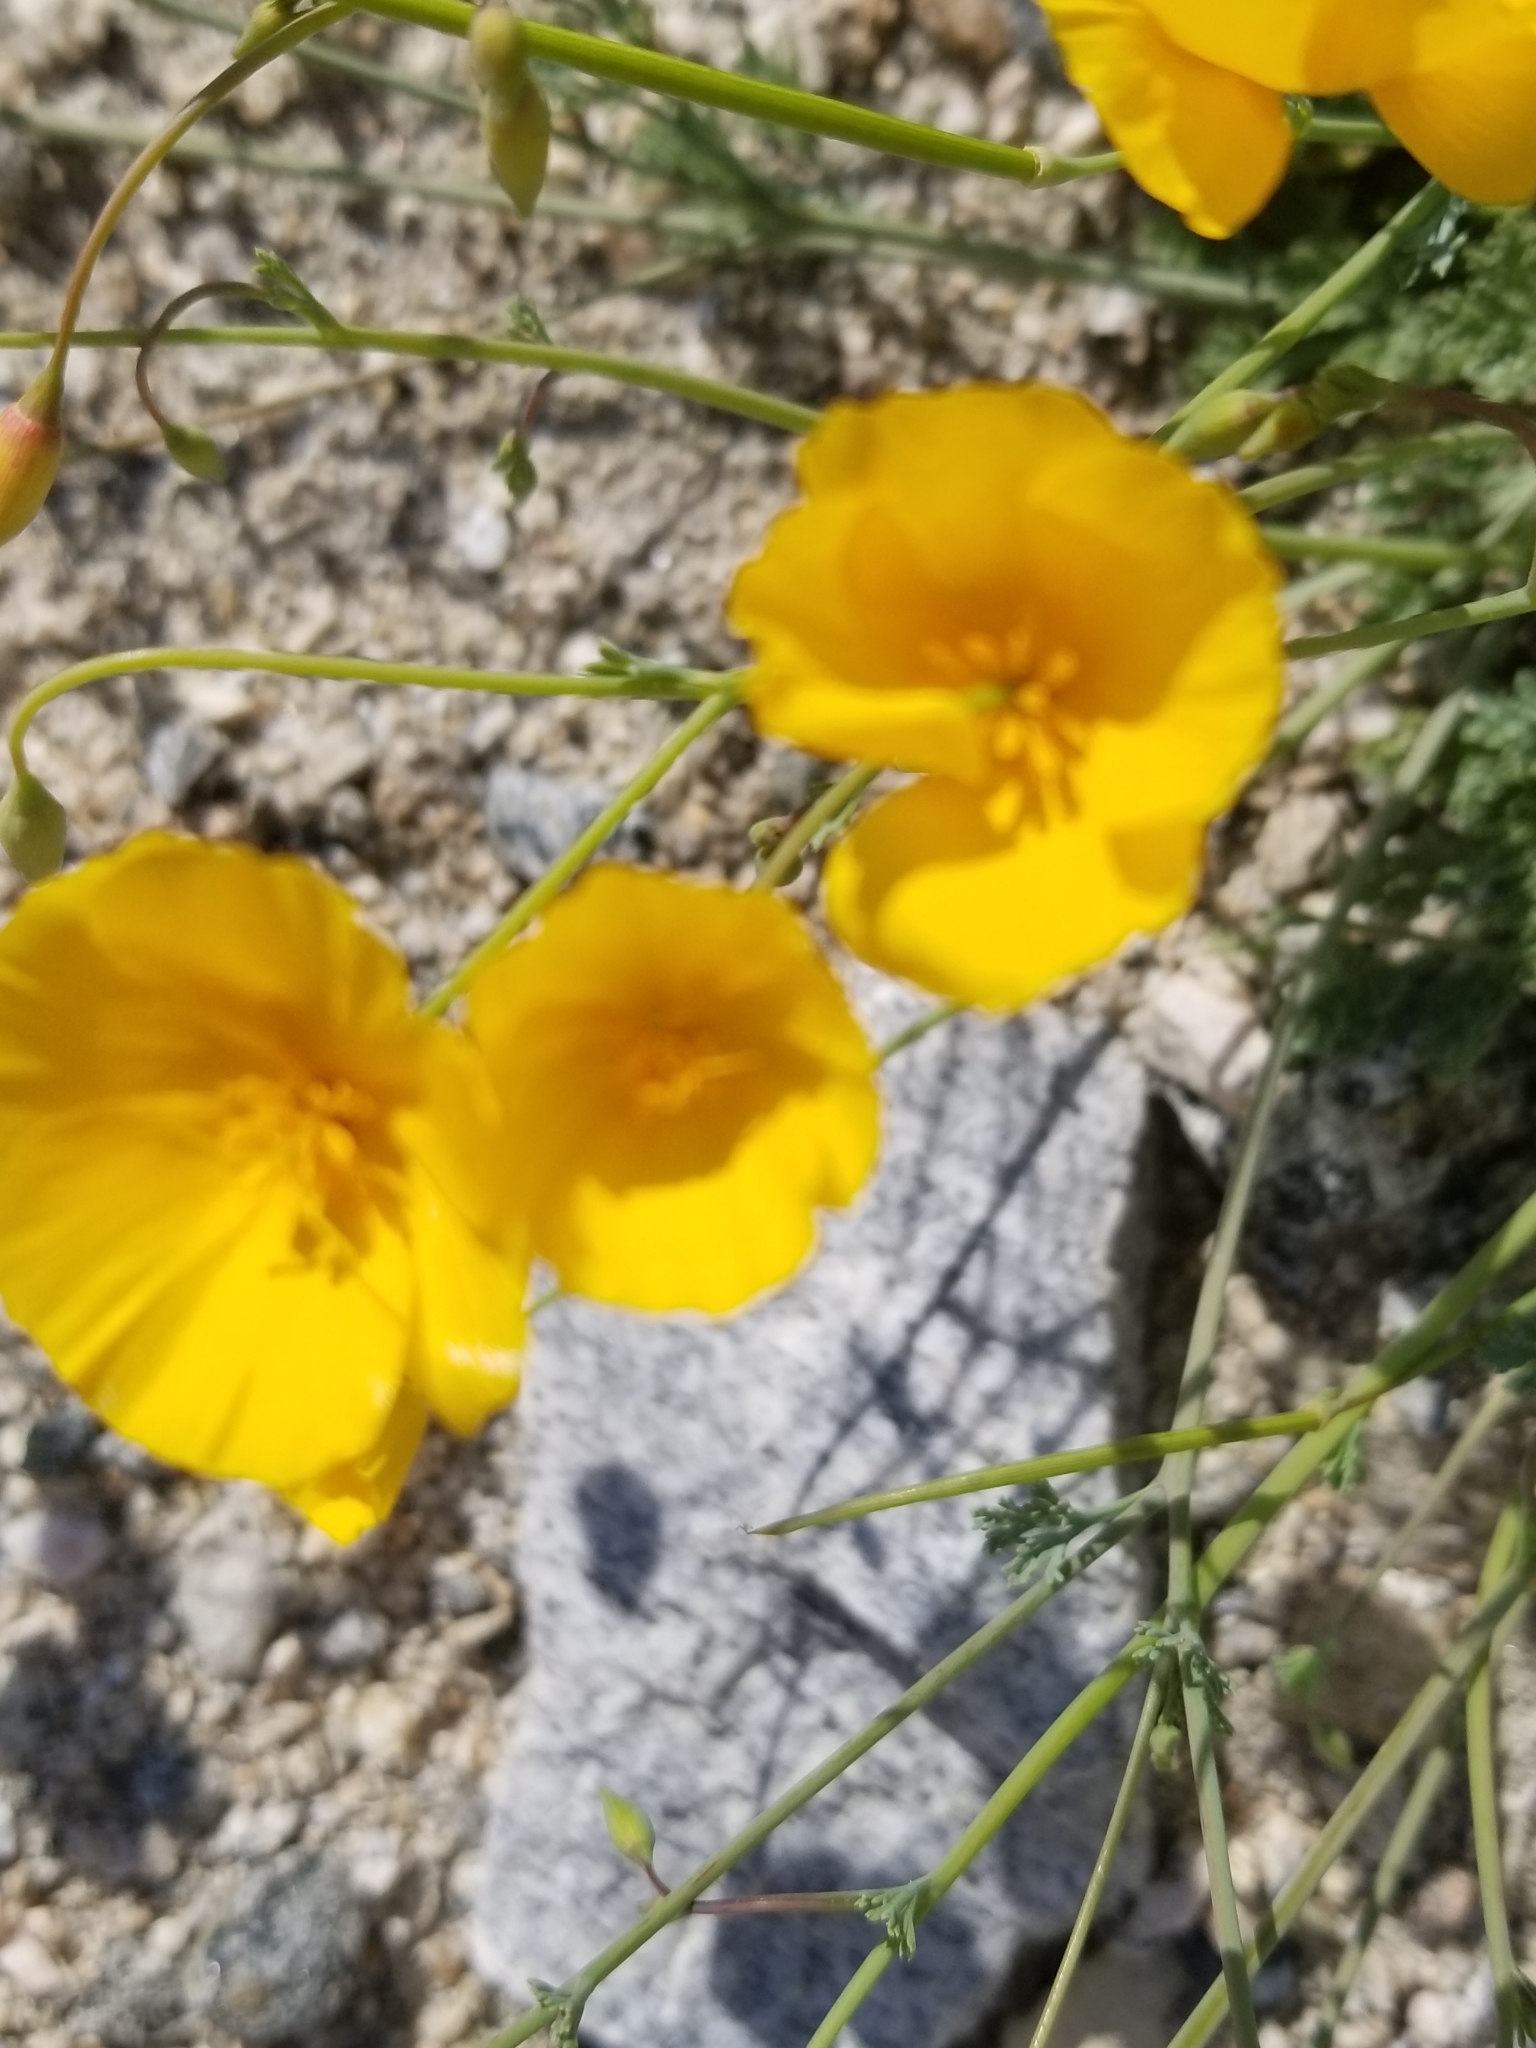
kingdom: Plantae
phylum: Tracheophyta
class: Magnoliopsida
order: Ranunculales
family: Papaveraceae
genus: Eschscholzia
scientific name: Eschscholzia parishii
